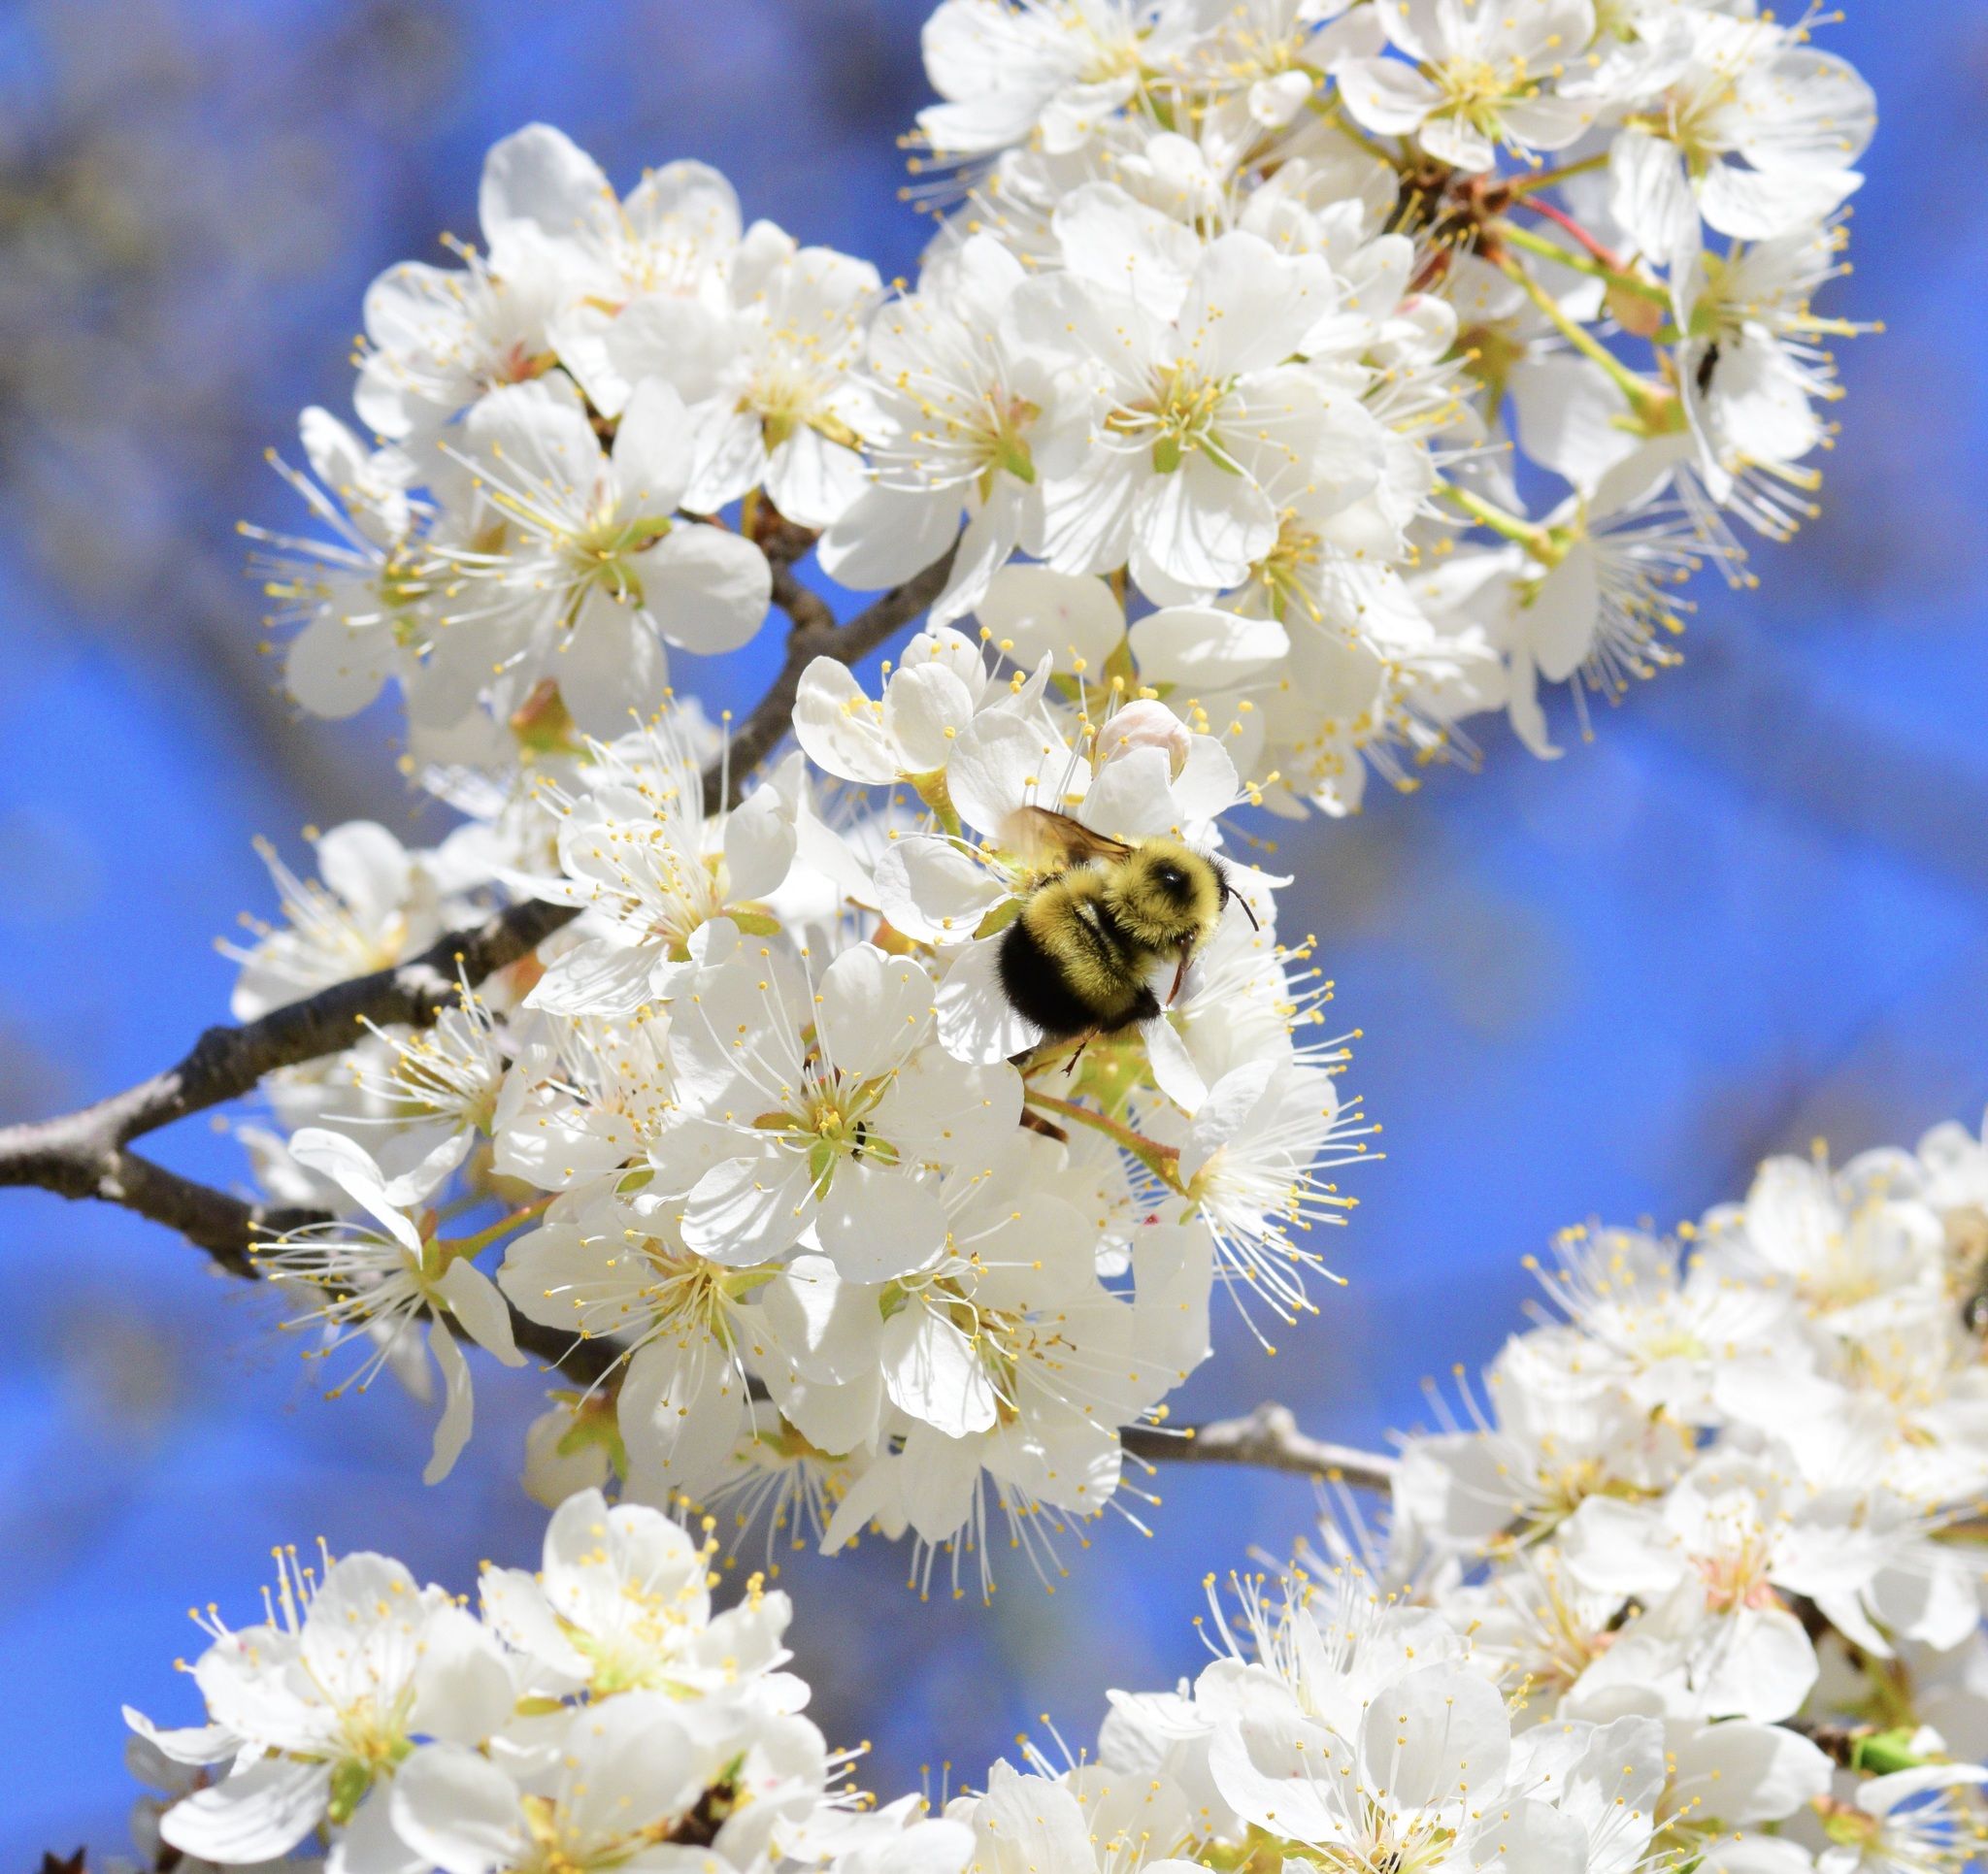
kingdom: Animalia
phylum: Arthropoda
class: Insecta
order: Hymenoptera
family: Apidae
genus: Pyrobombus
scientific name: Pyrobombus
